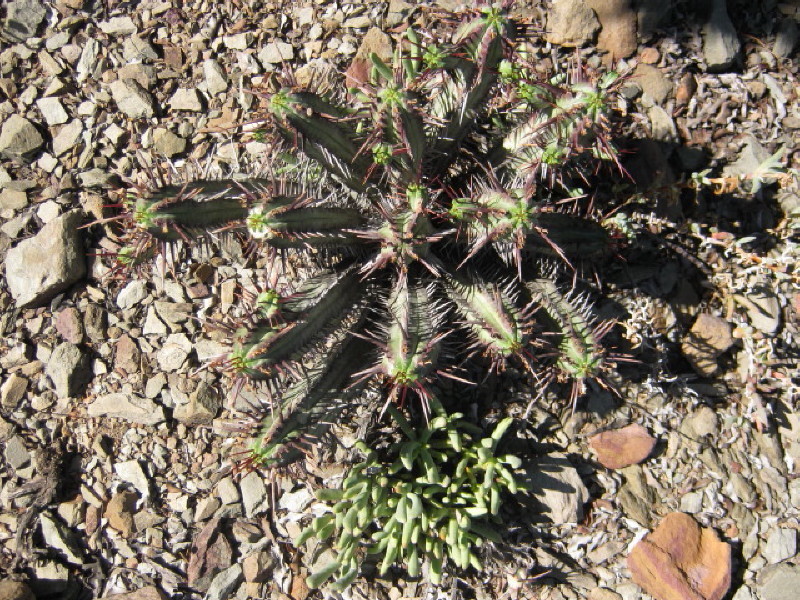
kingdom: Plantae
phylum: Tracheophyta
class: Magnoliopsida
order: Malpighiales
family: Euphorbiaceae
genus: Euphorbia
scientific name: Euphorbia heptagona
